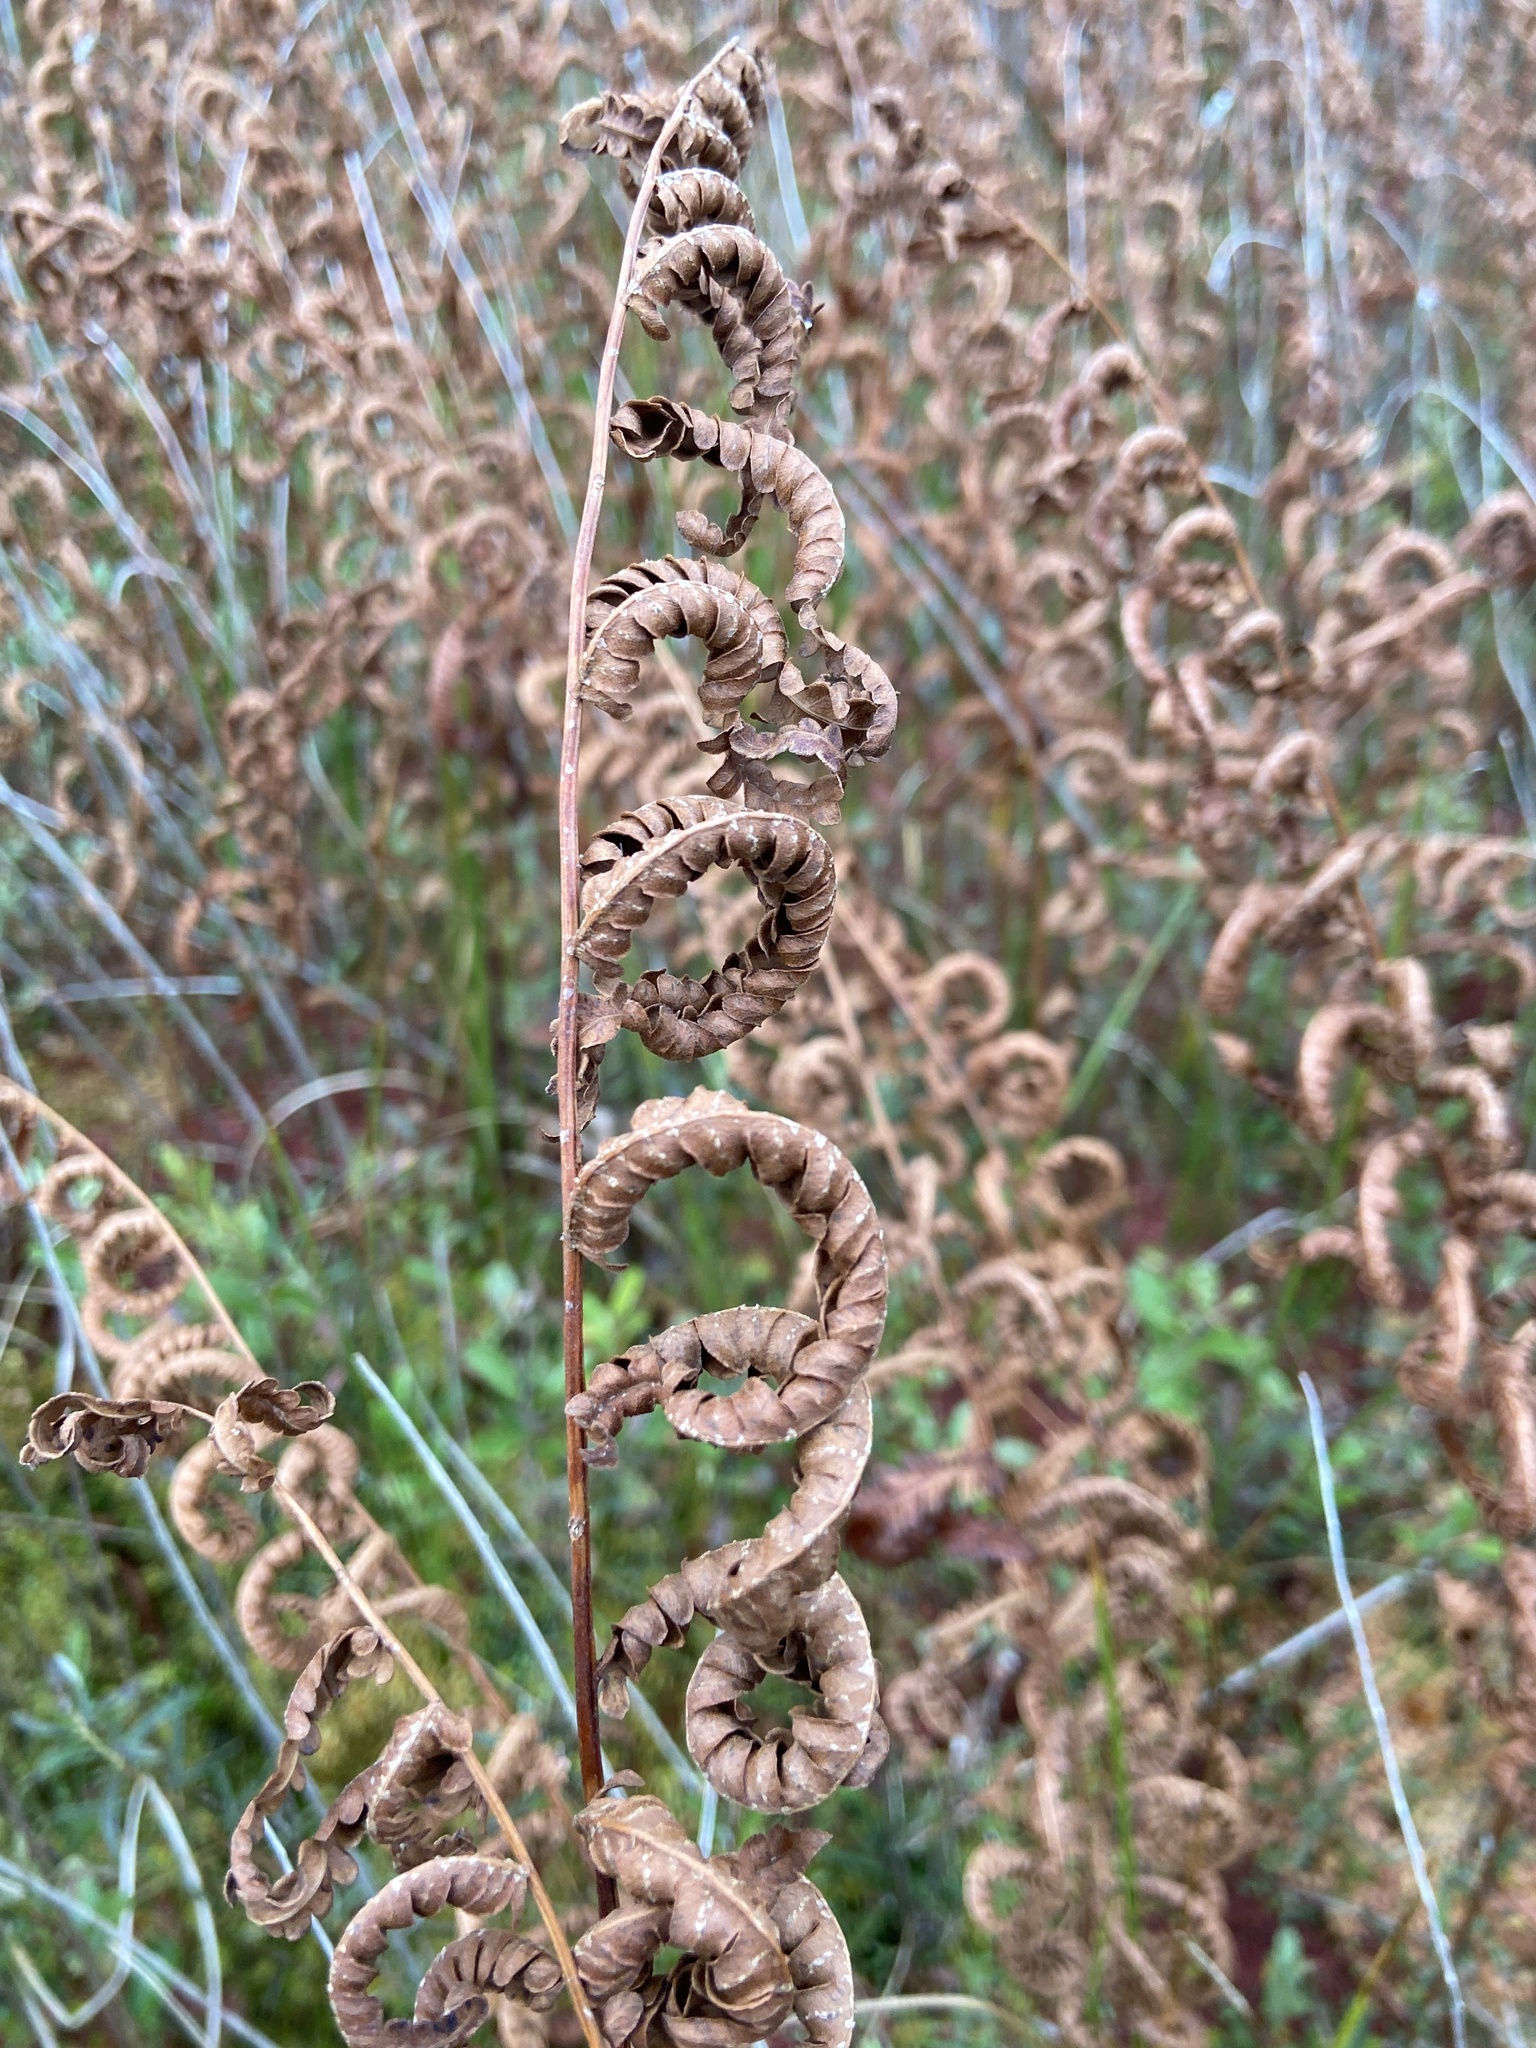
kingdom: Plantae
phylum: Tracheophyta
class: Polypodiopsida
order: Polypodiales
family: Blechnaceae
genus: Anchistea
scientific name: Anchistea virginica
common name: Virginia chain fern
